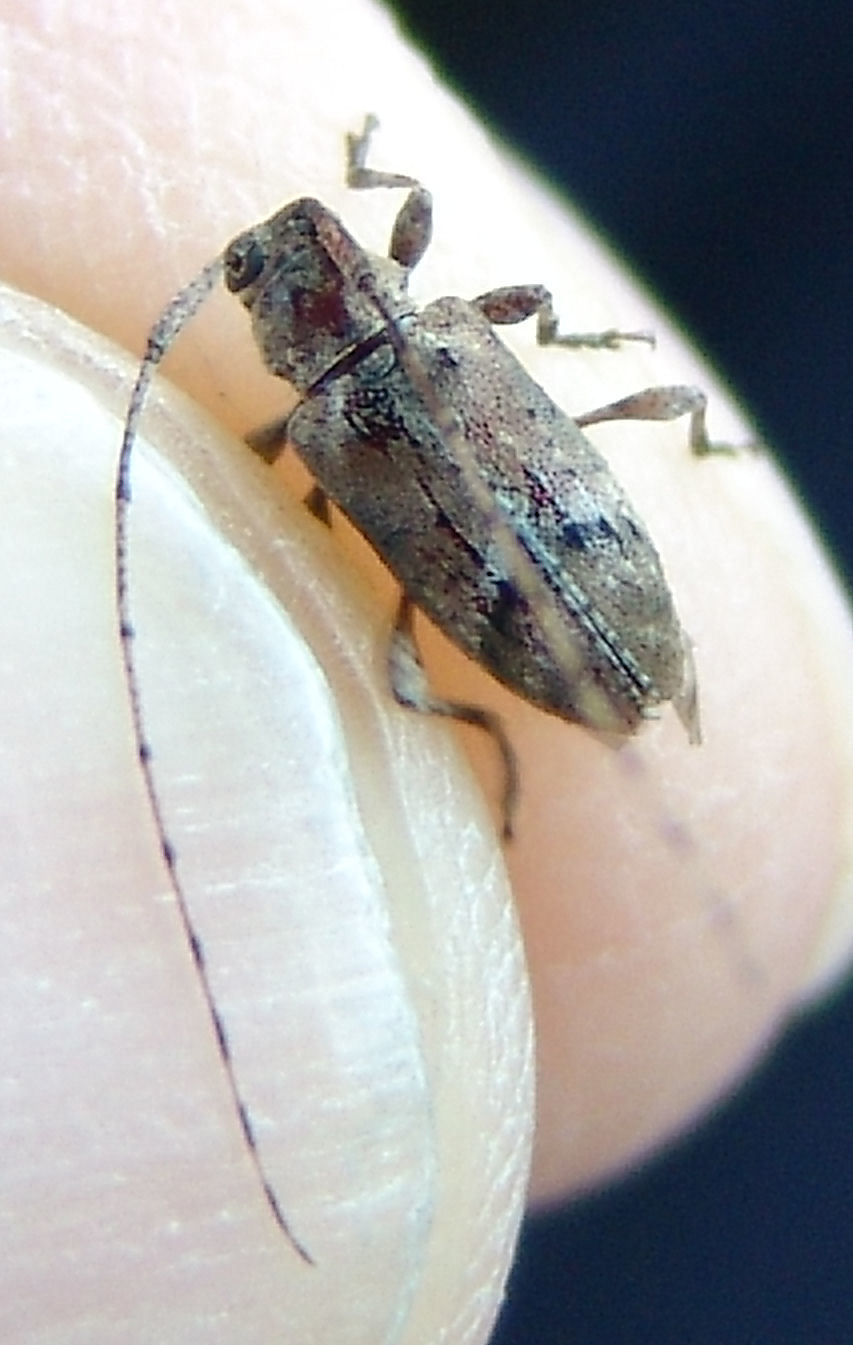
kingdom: Animalia
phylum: Arthropoda
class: Insecta
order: Coleoptera
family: Cerambycidae
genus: Sternidius
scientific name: Sternidius misellus
